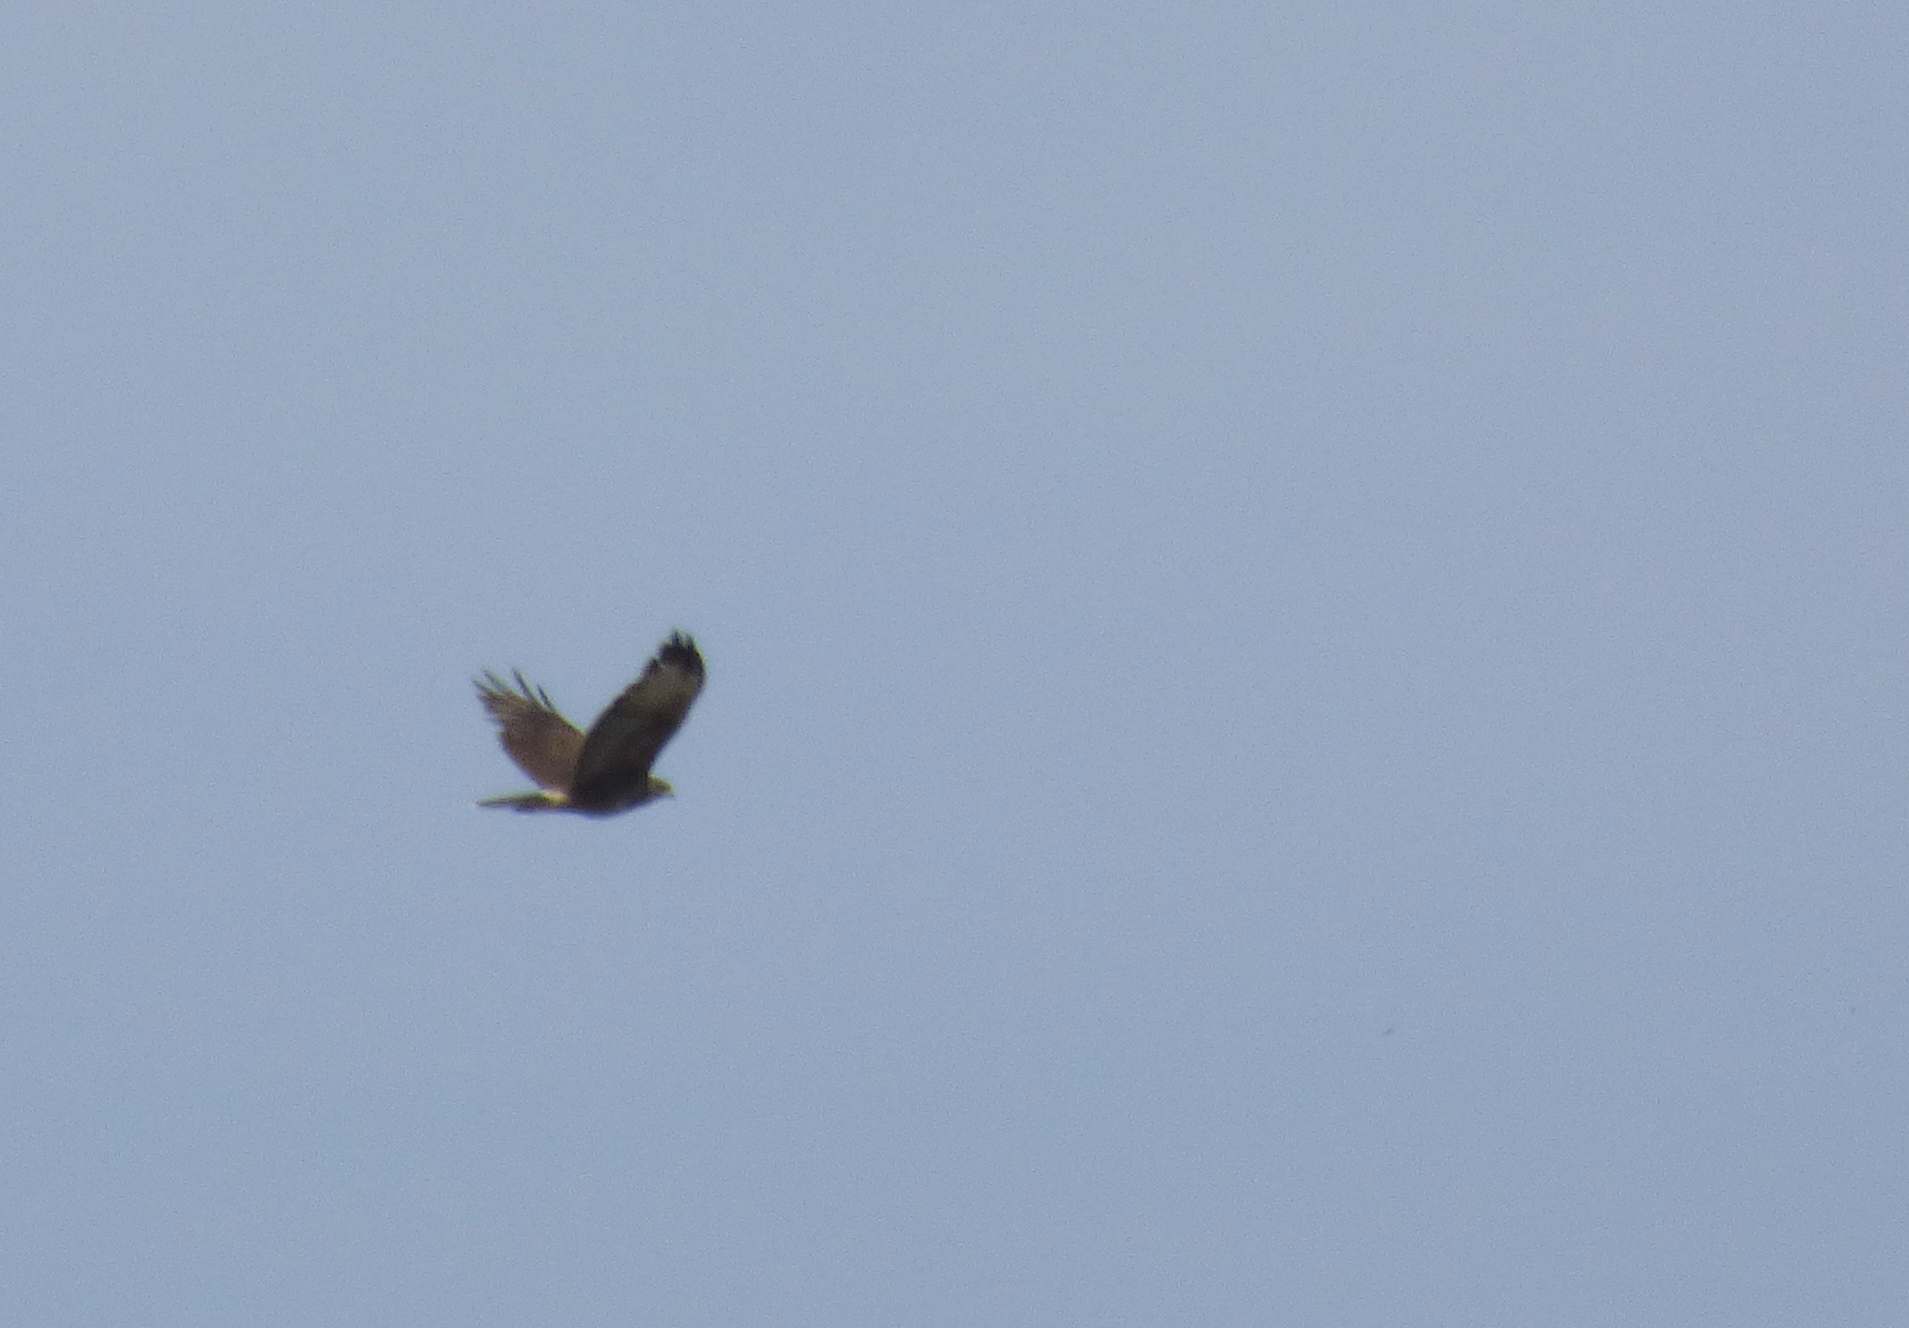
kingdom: Animalia
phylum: Chordata
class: Aves
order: Accipitriformes
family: Accipitridae
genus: Parabuteo
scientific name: Parabuteo unicinctus
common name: Harris's hawk
